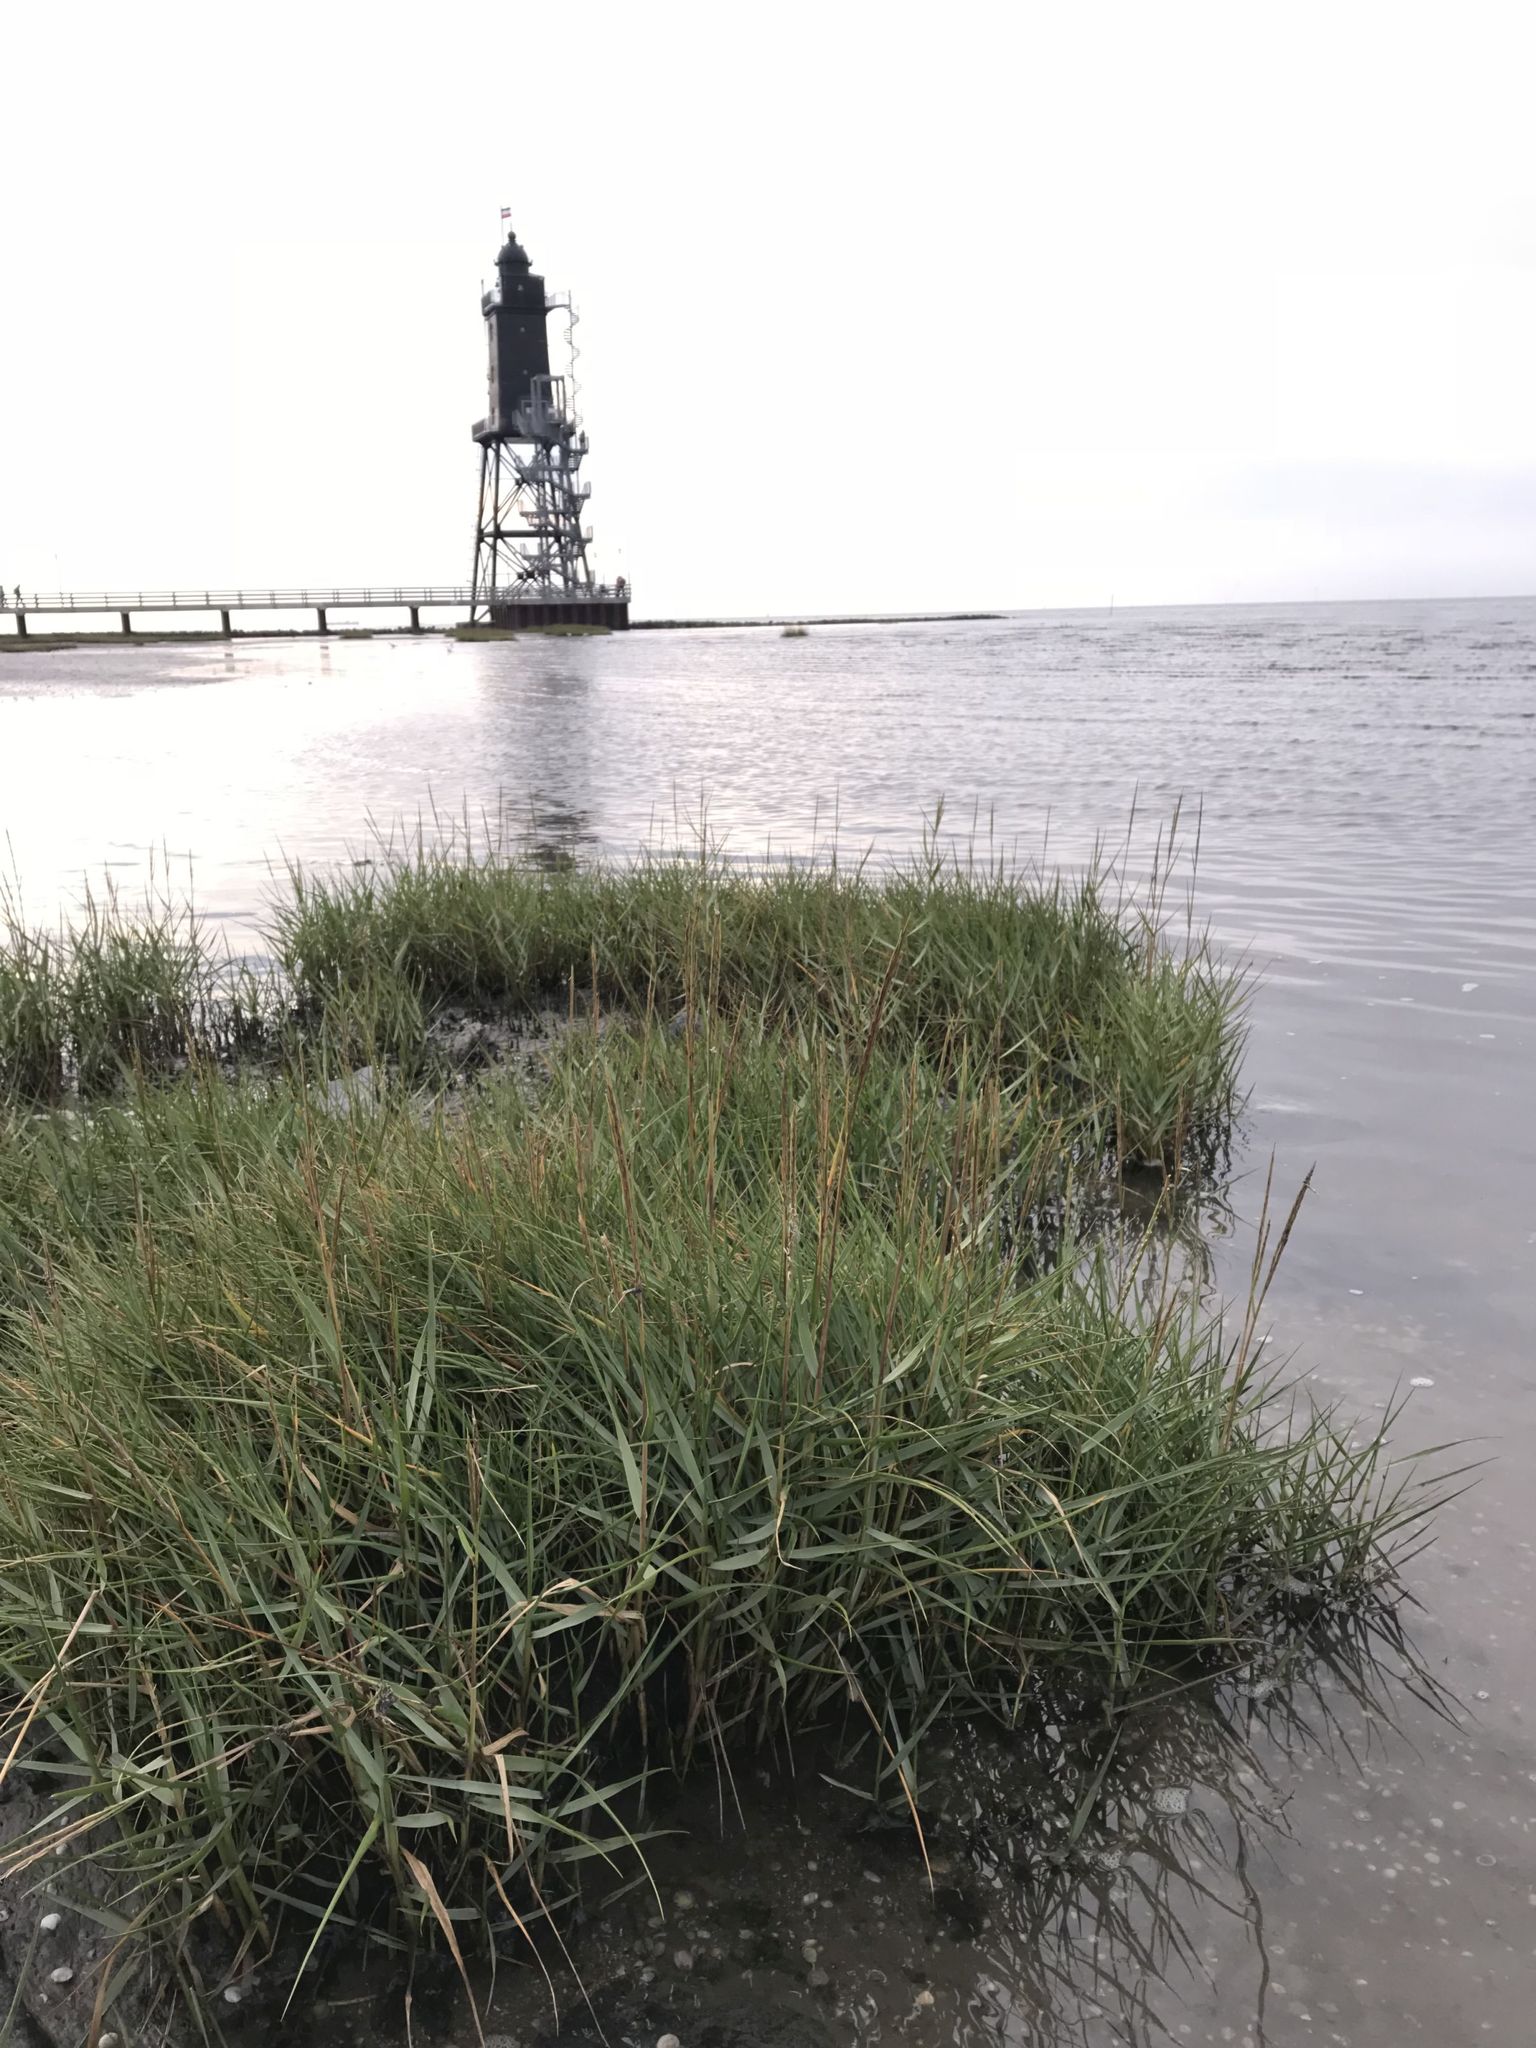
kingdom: Plantae
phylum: Tracheophyta
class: Liliopsida
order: Poales
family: Poaceae
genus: Sporobolus
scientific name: Sporobolus anglicus
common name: English cordgrass
